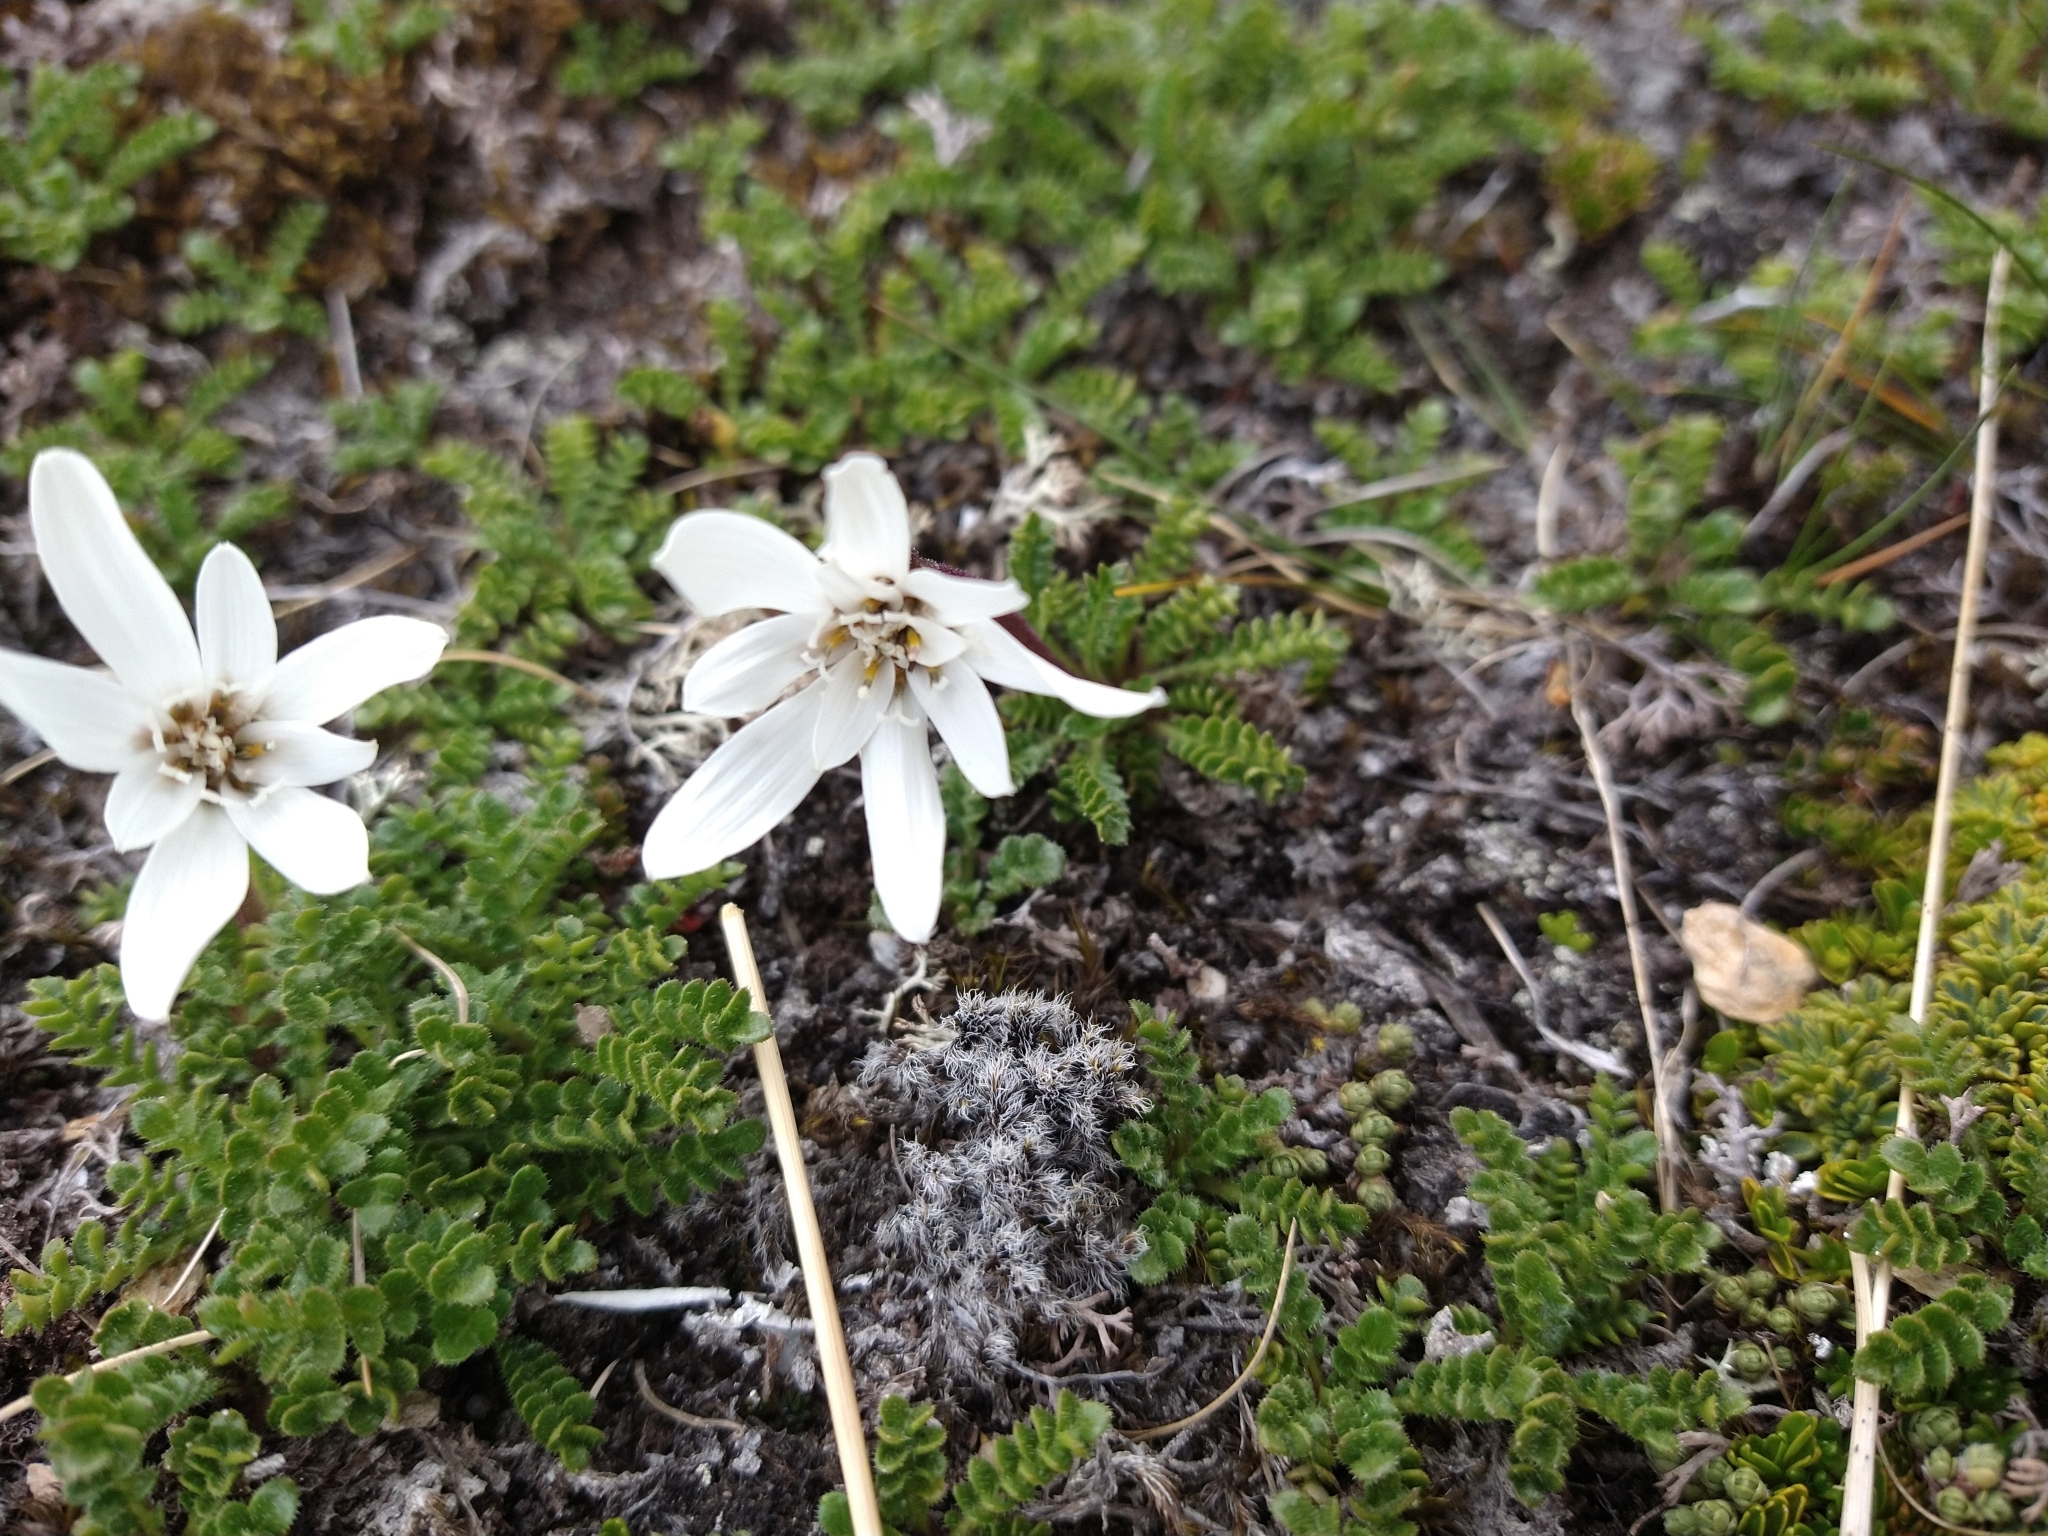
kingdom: Plantae
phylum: Tracheophyta
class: Magnoliopsida
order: Asterales
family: Asteraceae
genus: Perezia
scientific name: Perezia magellanica
